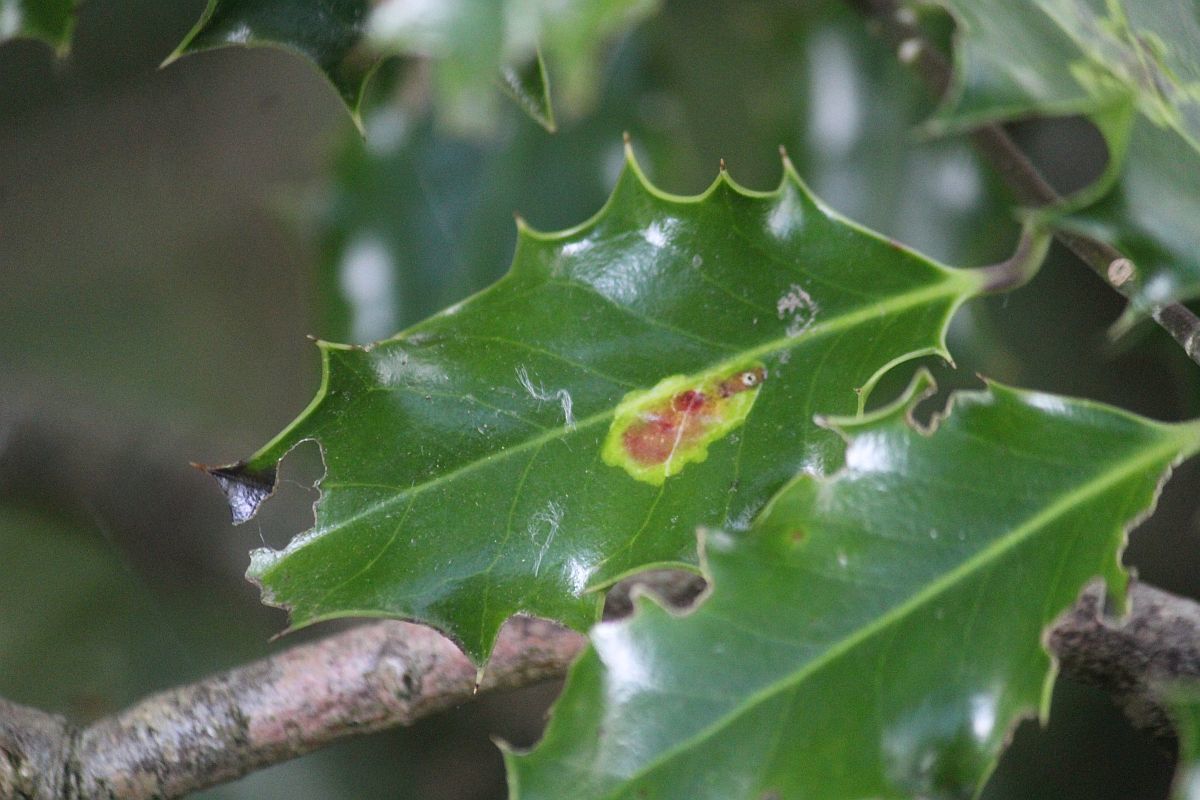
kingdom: Animalia
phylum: Arthropoda
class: Insecta
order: Diptera
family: Agromyzidae
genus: Phytomyza
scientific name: Phytomyza ilicis
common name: Holly leafminer
